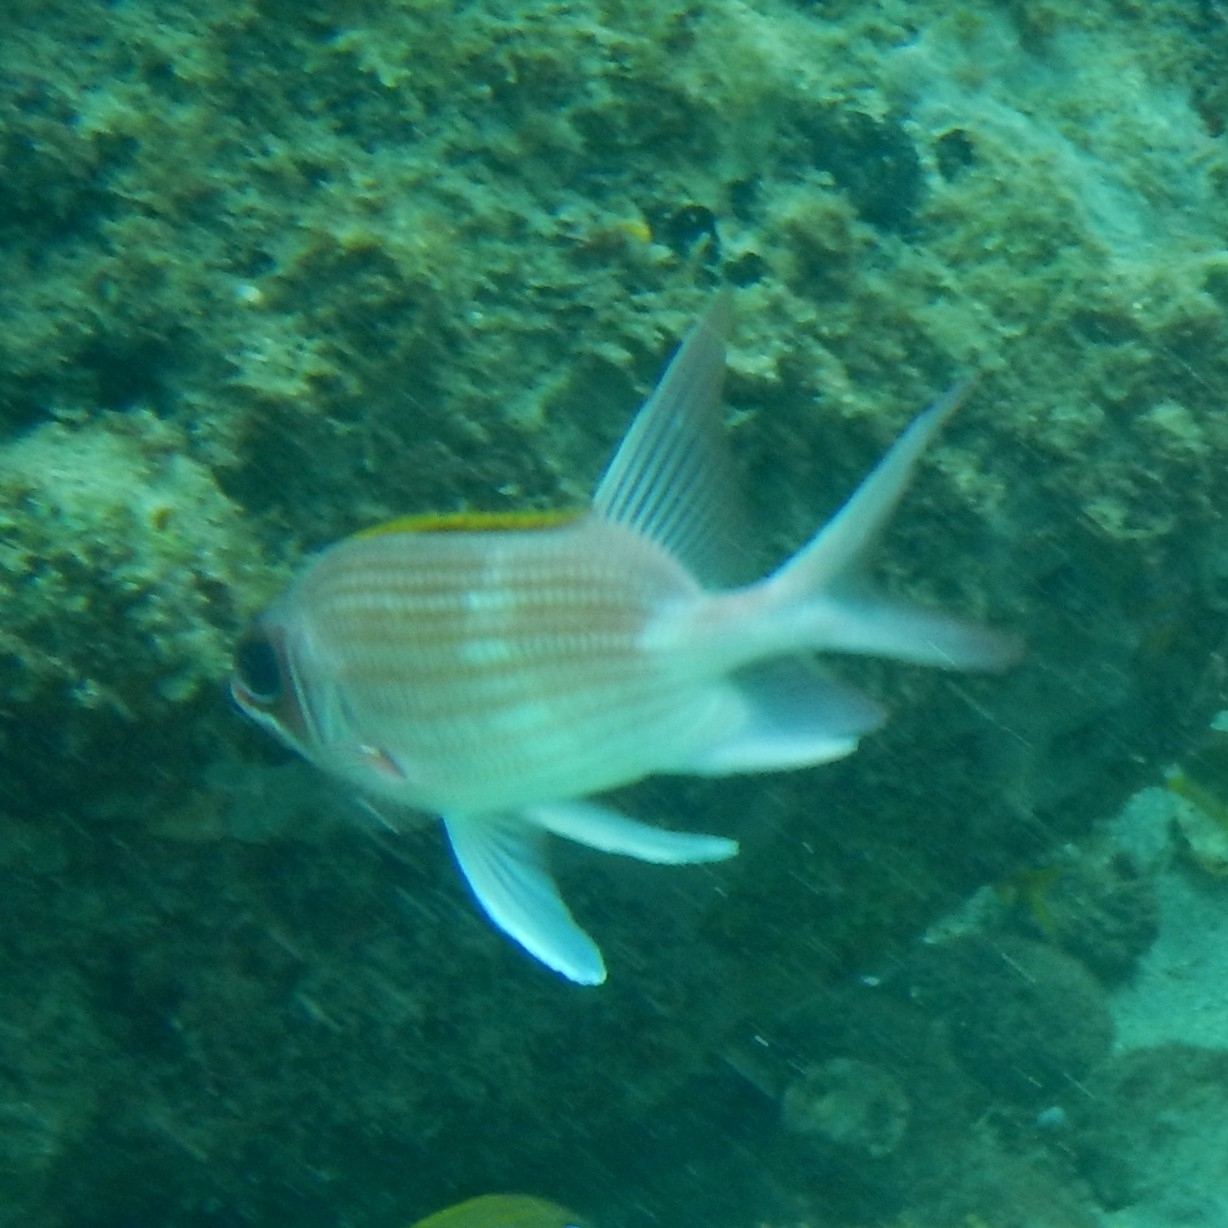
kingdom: Animalia
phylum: Chordata
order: Beryciformes
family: Holocentridae
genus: Holocentrus
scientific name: Holocentrus adscensionis
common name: Squirrelfish
